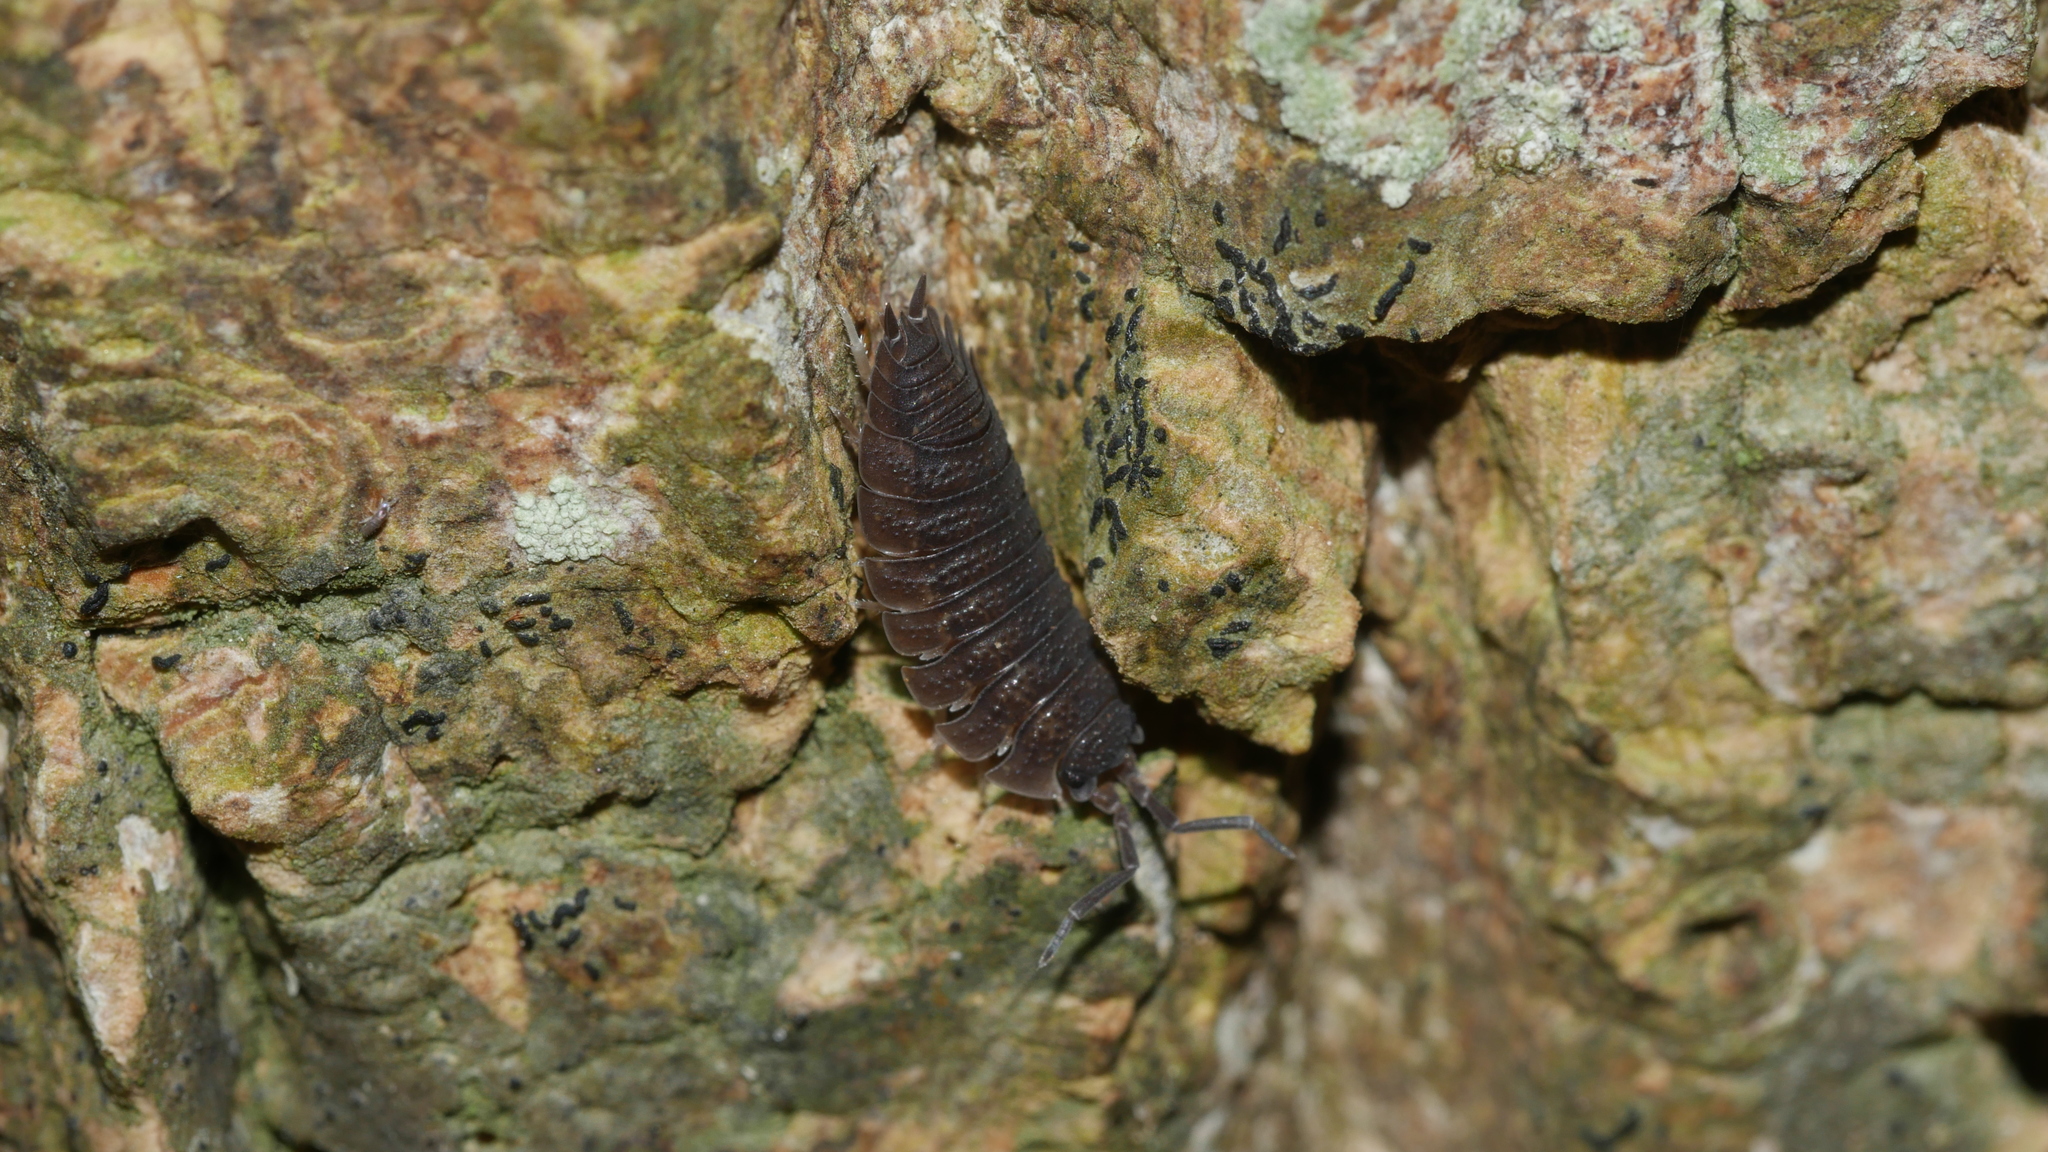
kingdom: Animalia
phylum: Arthropoda
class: Malacostraca
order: Isopoda
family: Porcellionidae
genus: Porcellio
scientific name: Porcellio scaber
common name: Common rough woodlouse
